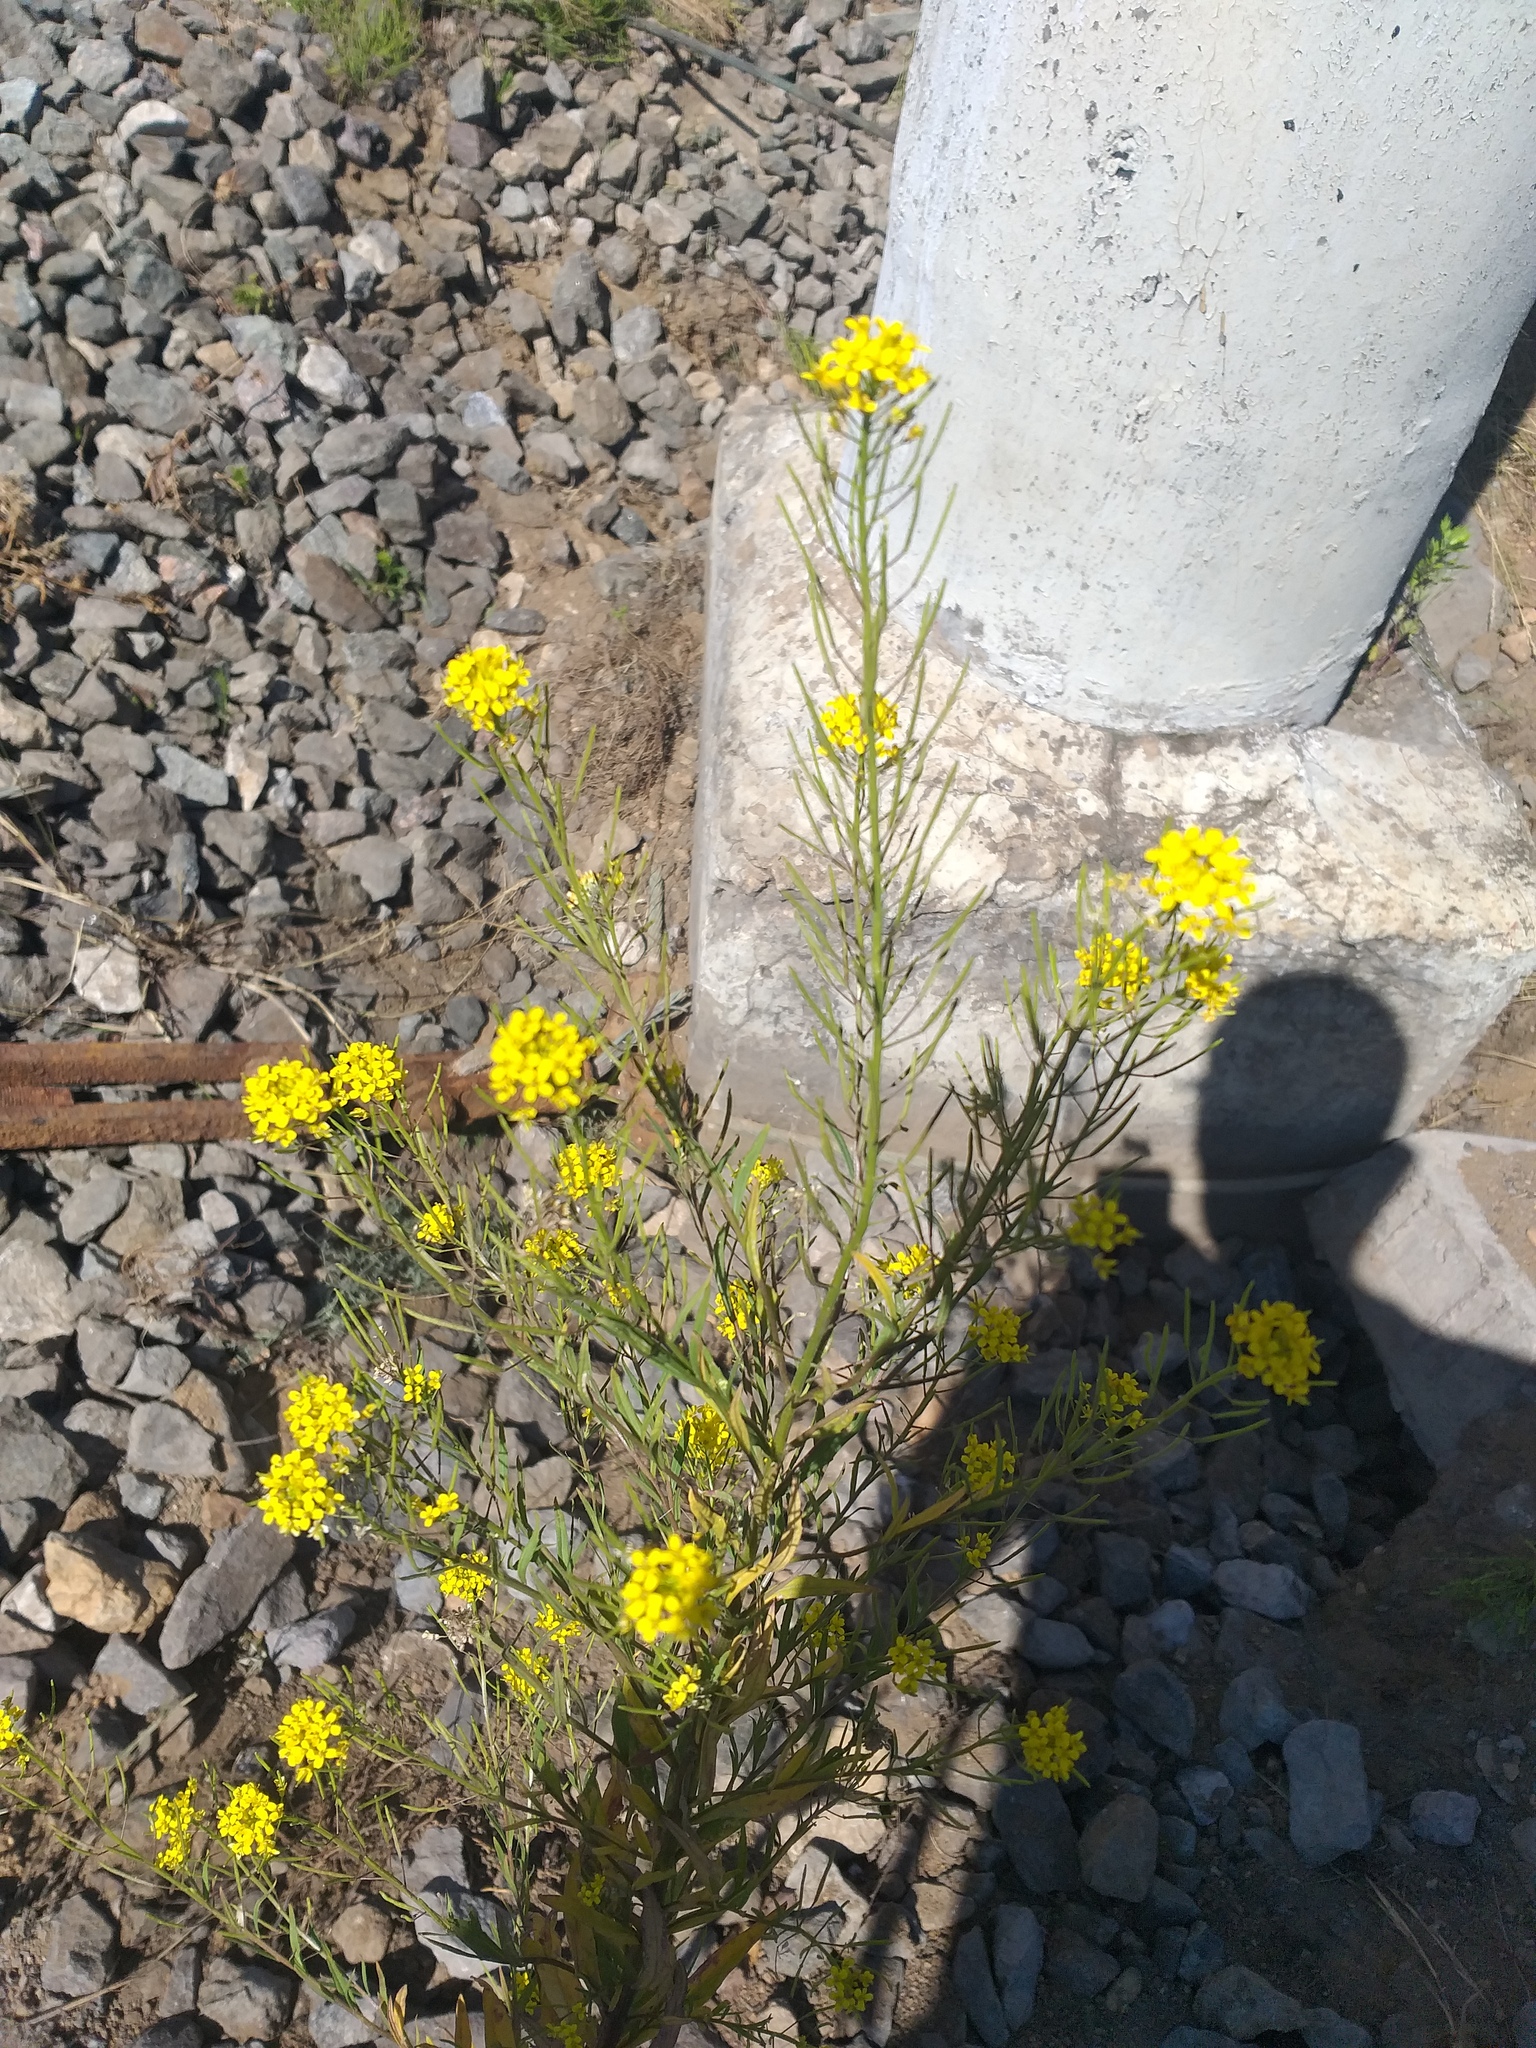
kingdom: Plantae
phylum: Tracheophyta
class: Magnoliopsida
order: Brassicales
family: Brassicaceae
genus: Erysimum
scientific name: Erysimum cheiranthoides
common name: Treacle mustard
